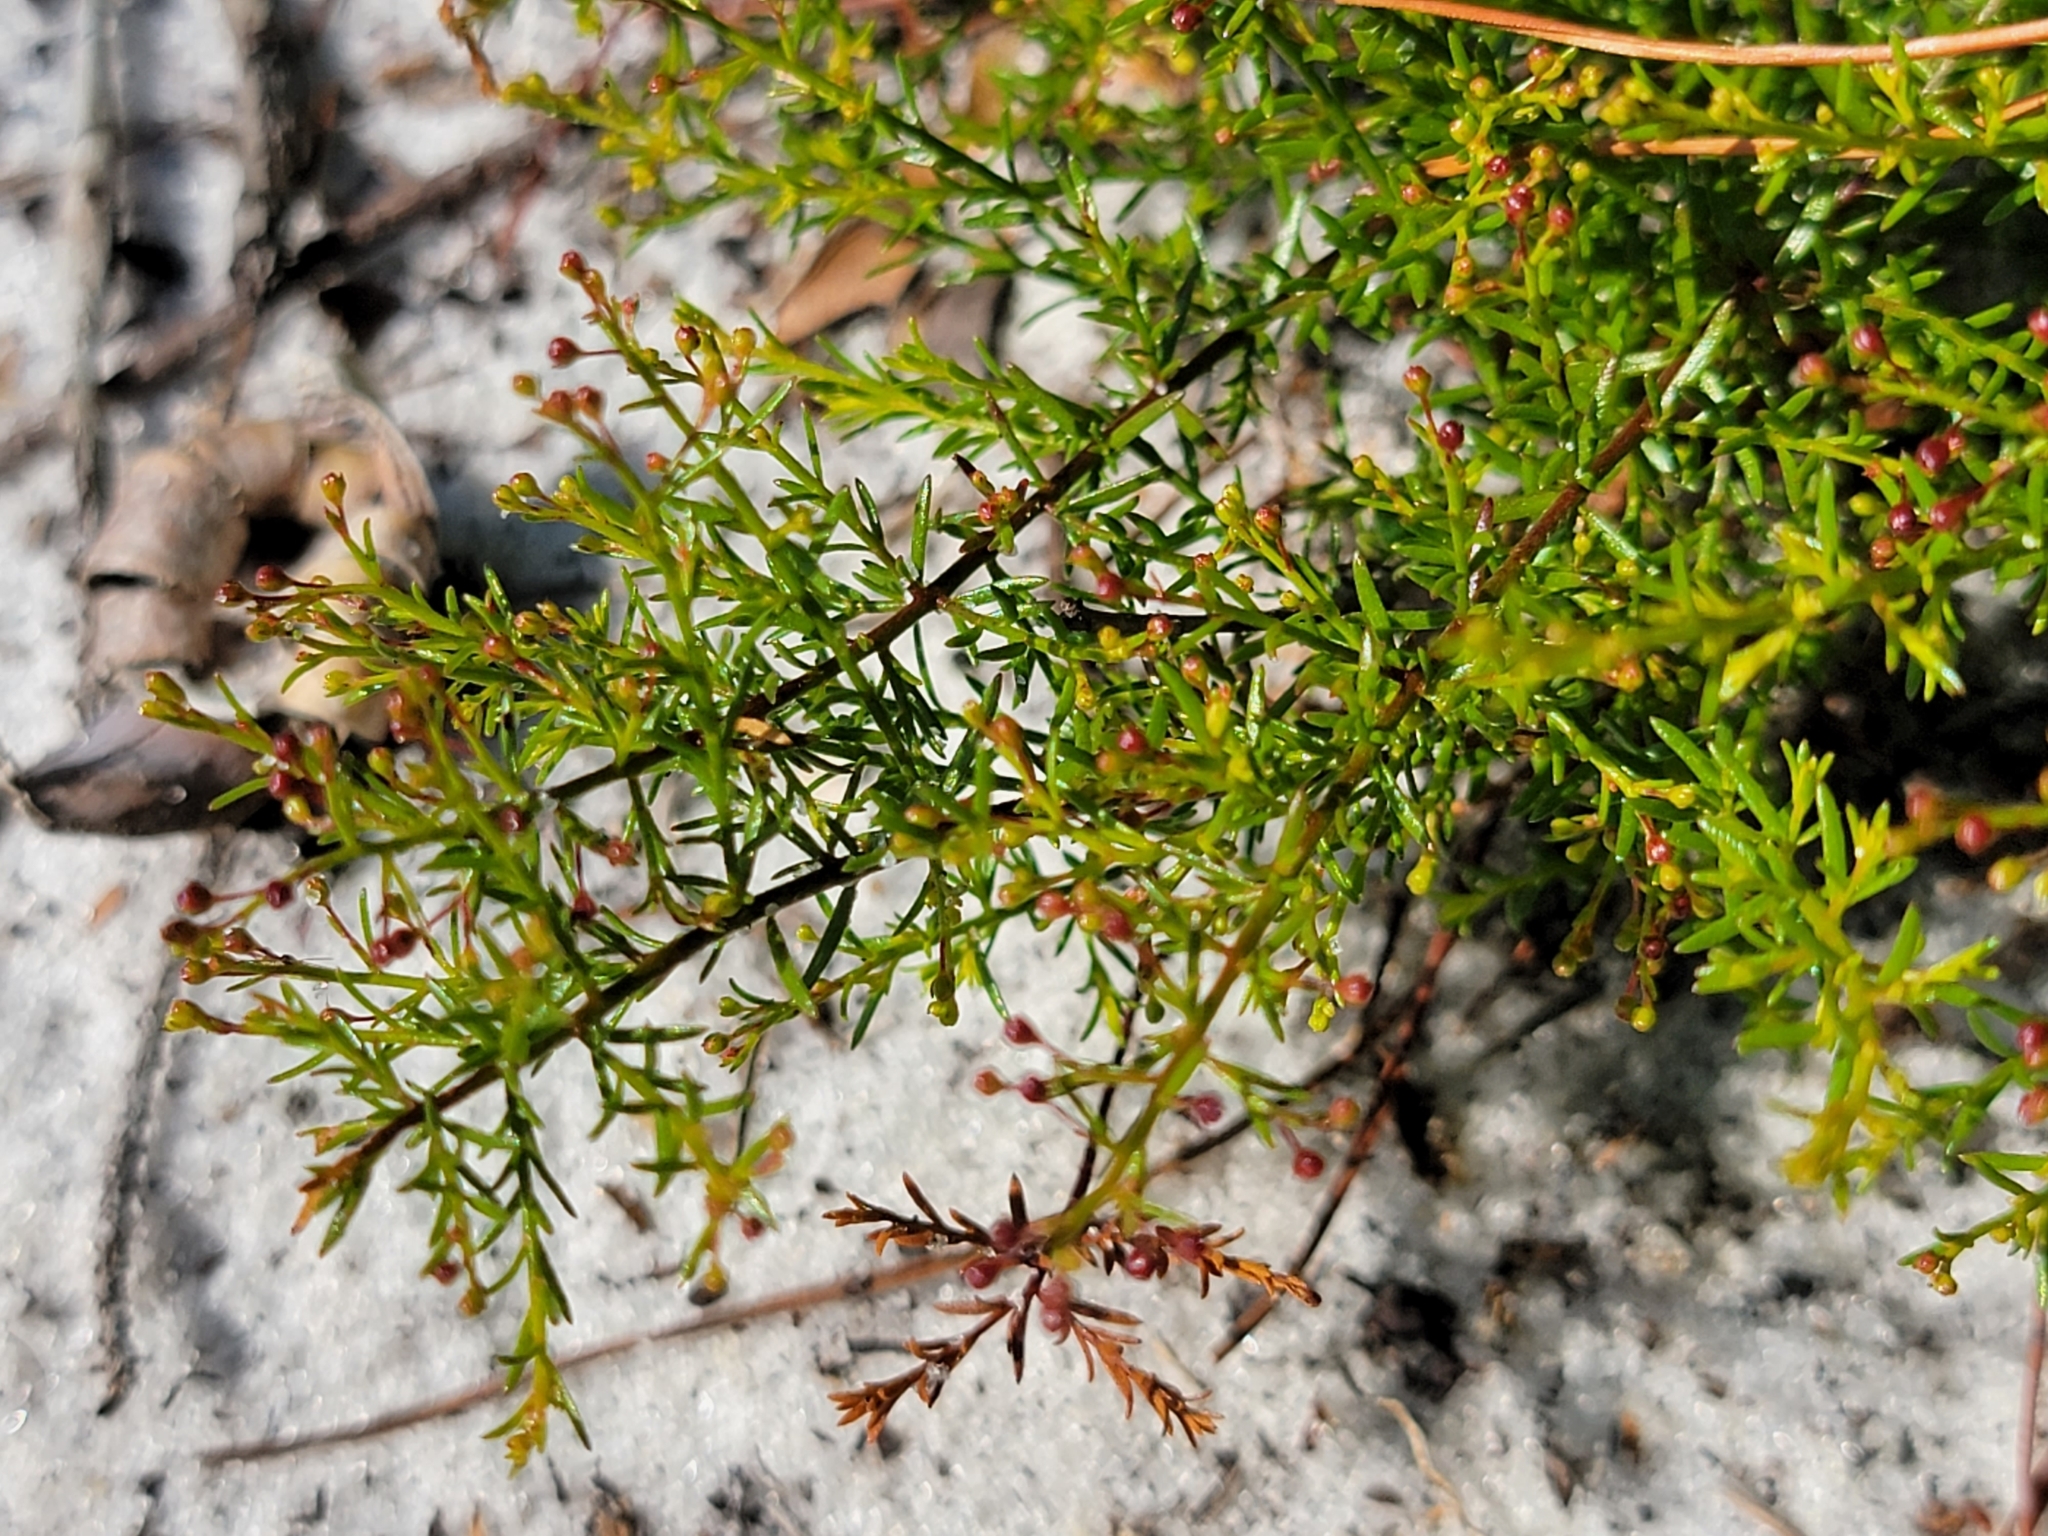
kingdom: Plantae
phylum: Tracheophyta
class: Magnoliopsida
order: Malvales
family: Cistaceae
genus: Lechea
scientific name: Lechea deckertii
